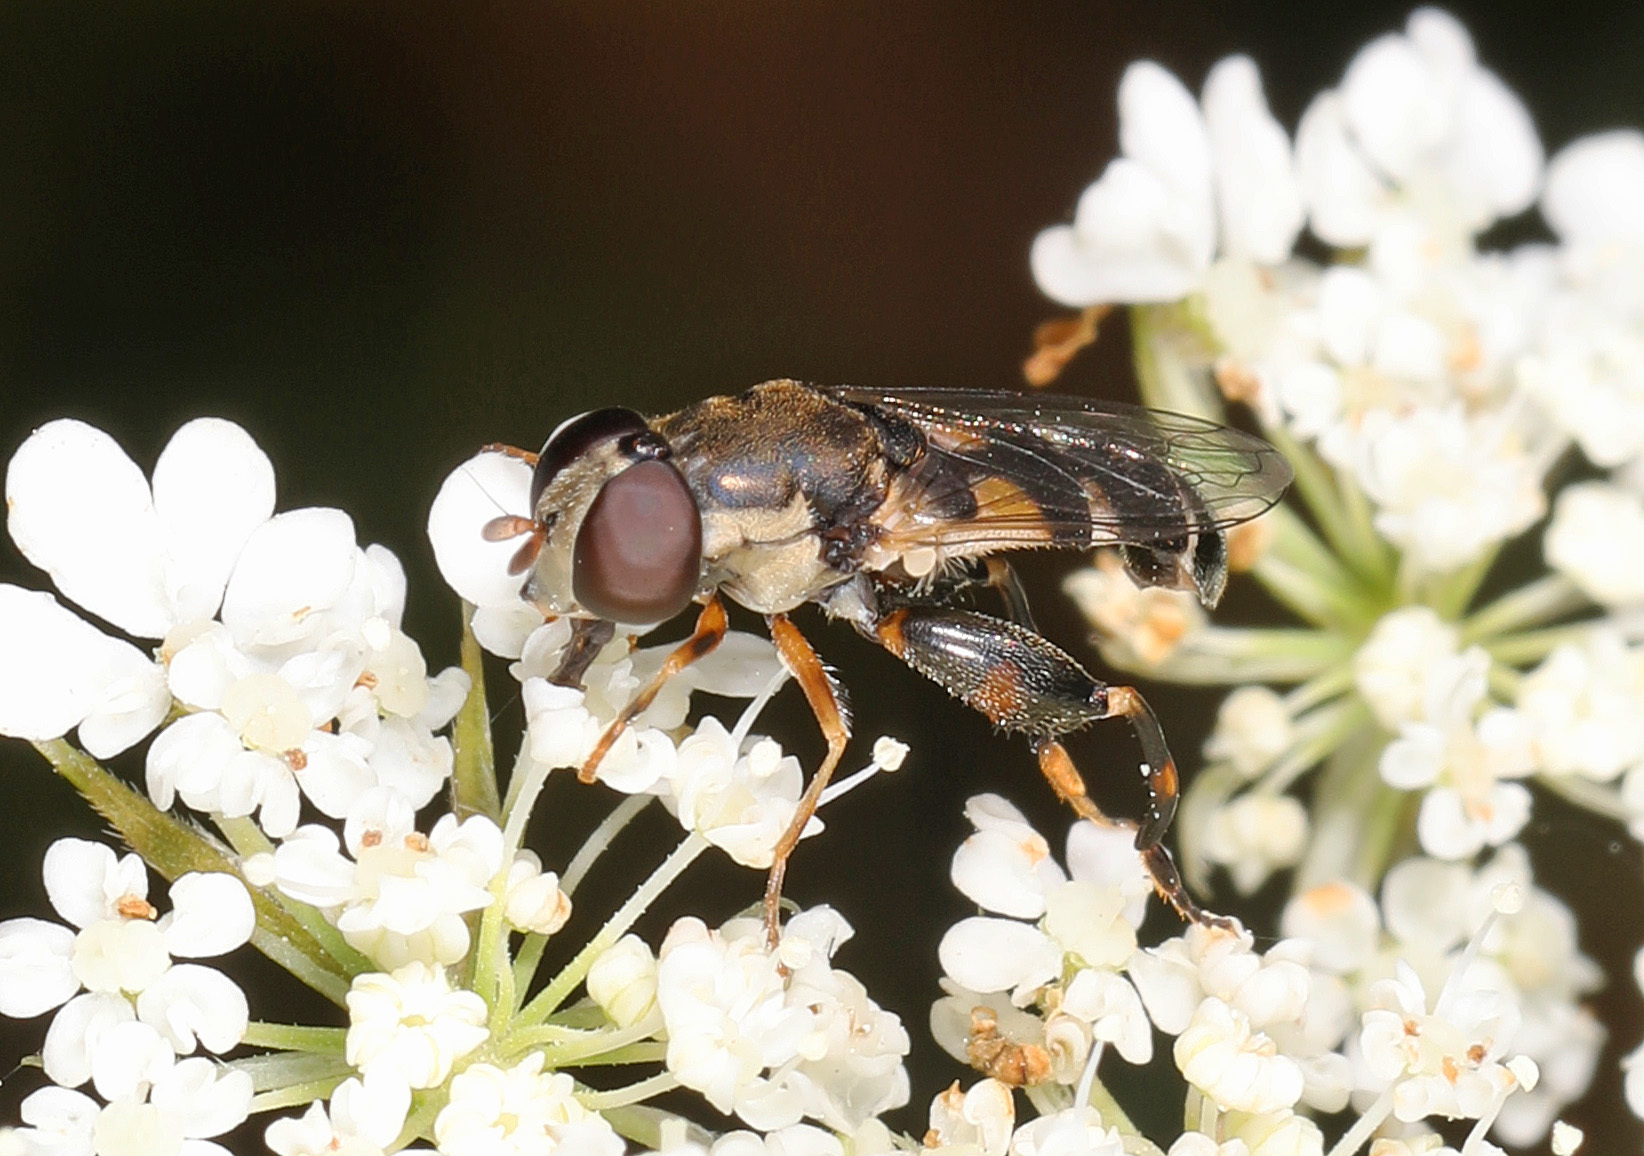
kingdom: Animalia
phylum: Arthropoda
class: Insecta
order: Diptera
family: Syrphidae
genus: Syritta
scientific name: Syritta pipiens
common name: Hover fly
